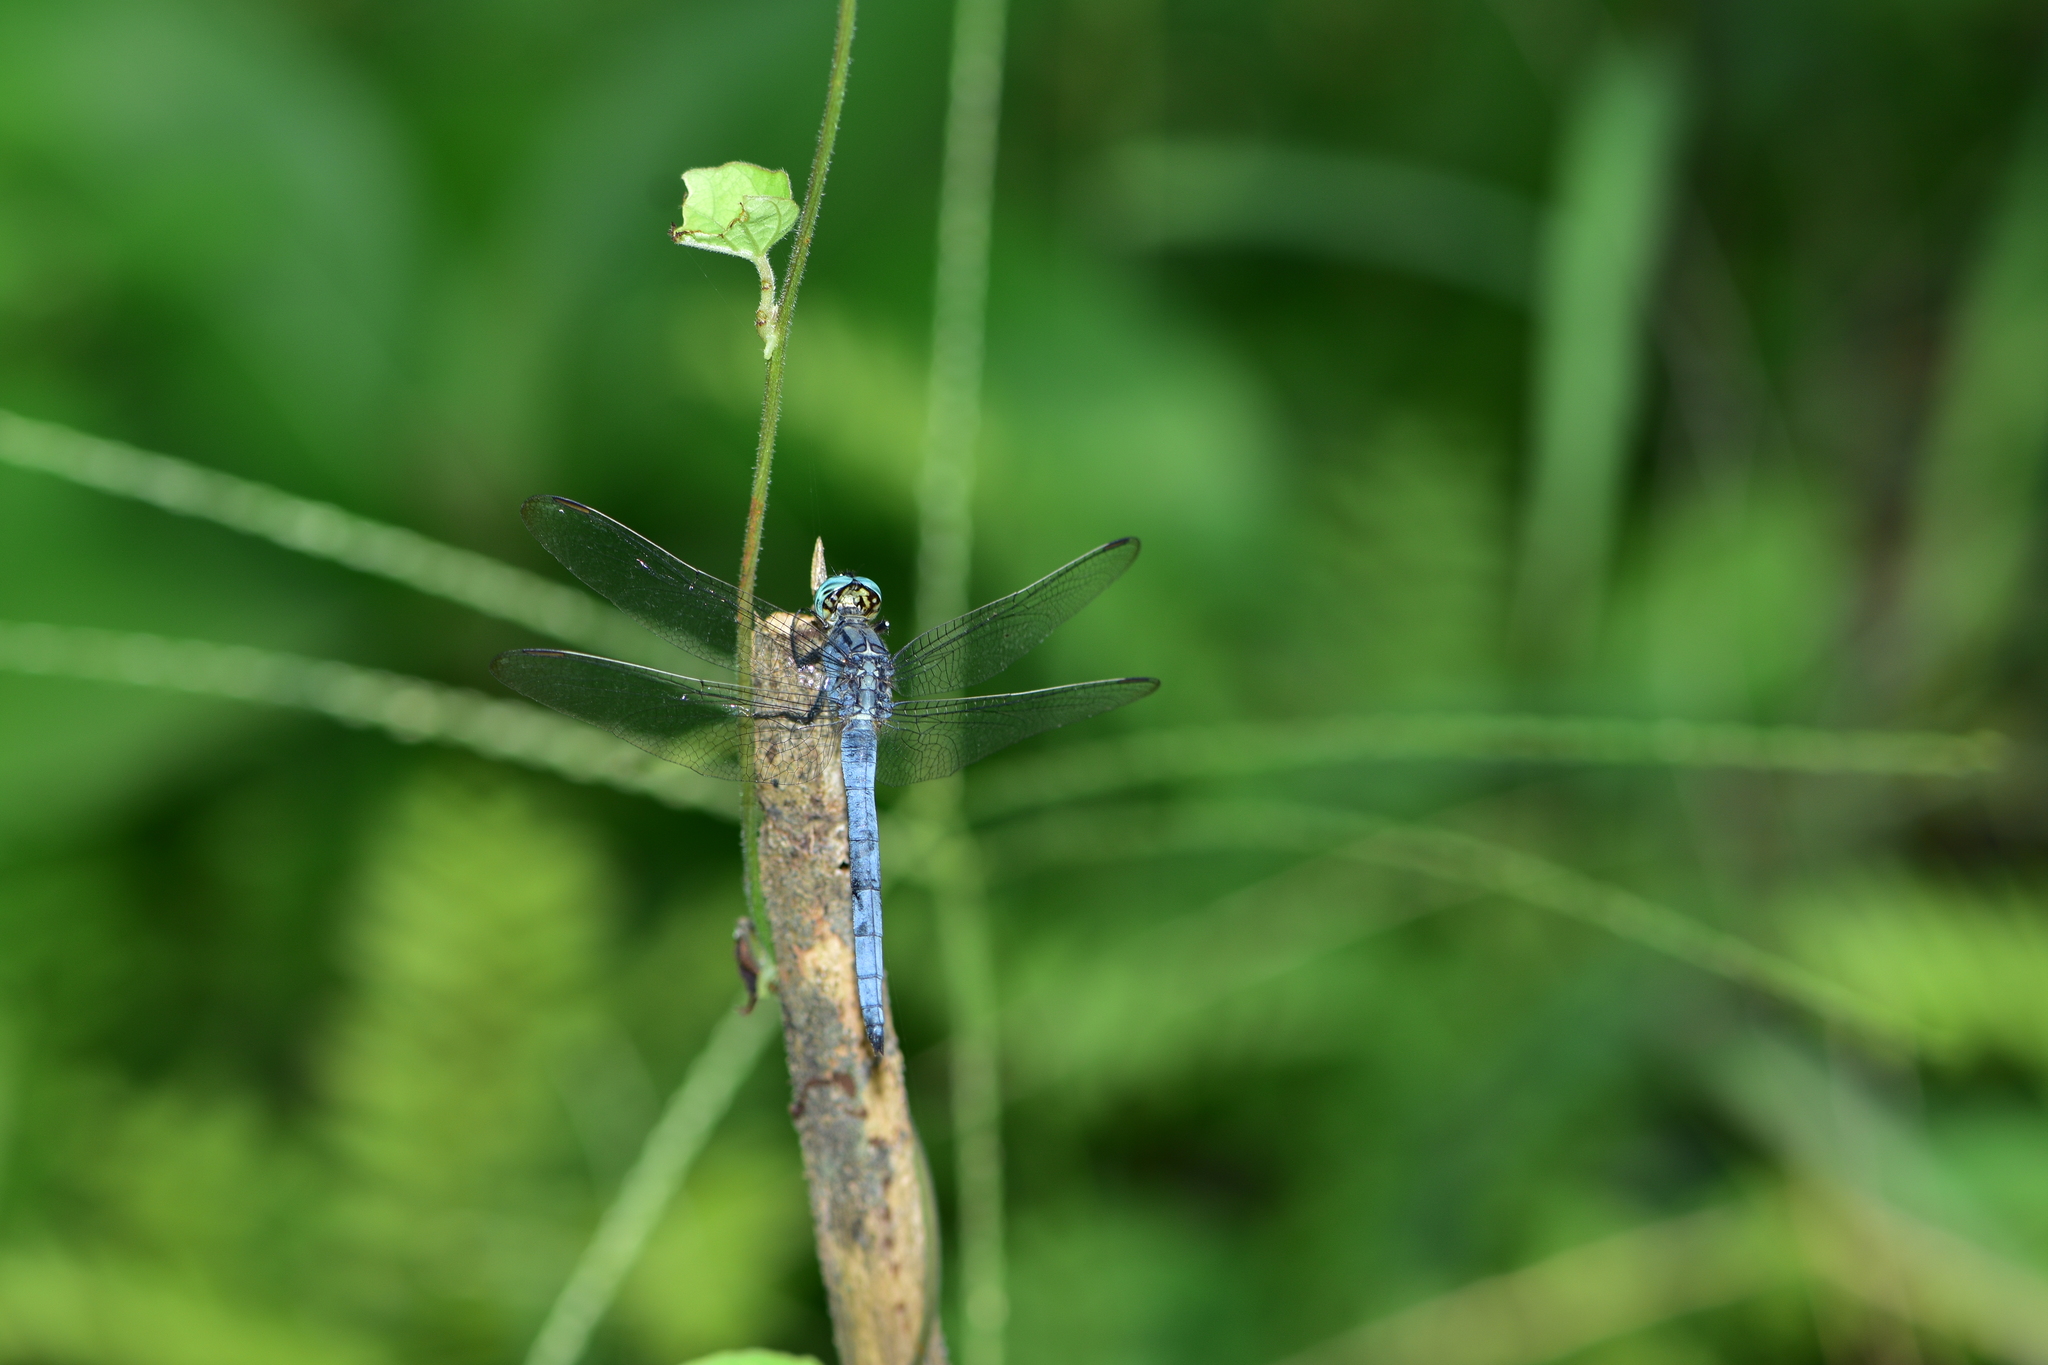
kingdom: Animalia
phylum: Arthropoda
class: Insecta
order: Odonata
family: Libellulidae
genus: Orthetrum
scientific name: Orthetrum luzonicum
